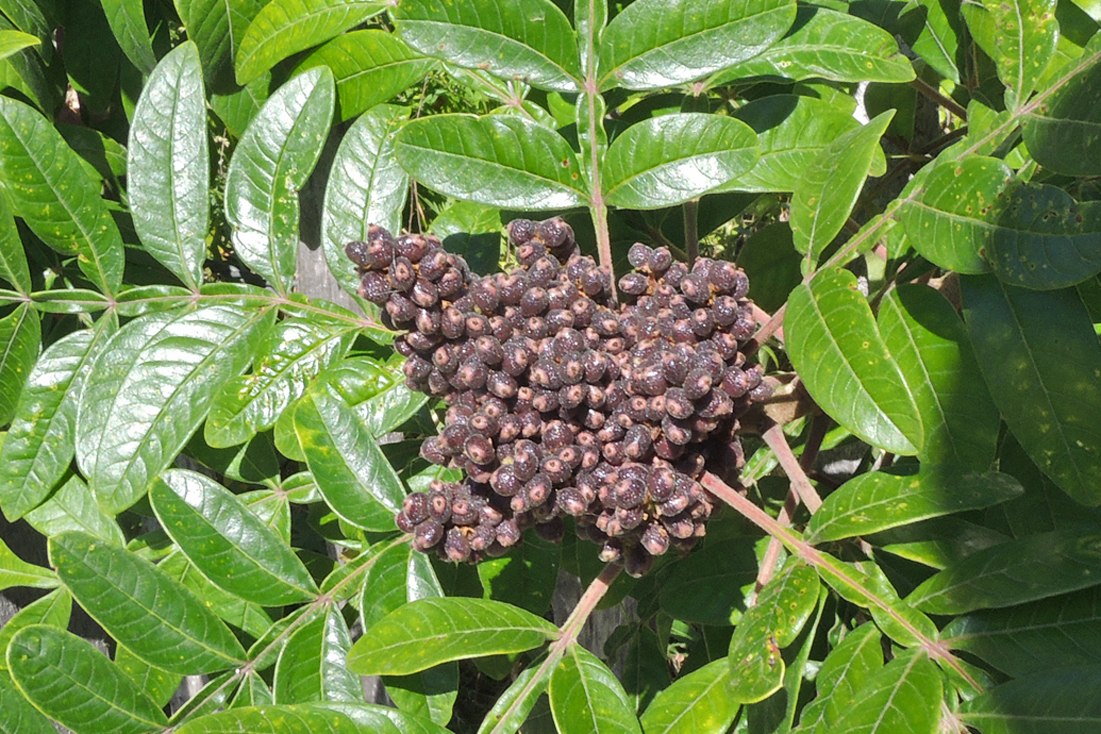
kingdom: Plantae
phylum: Tracheophyta
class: Magnoliopsida
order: Sapindales
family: Anacardiaceae
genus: Rhus
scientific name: Rhus copallina
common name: Shining sumac
